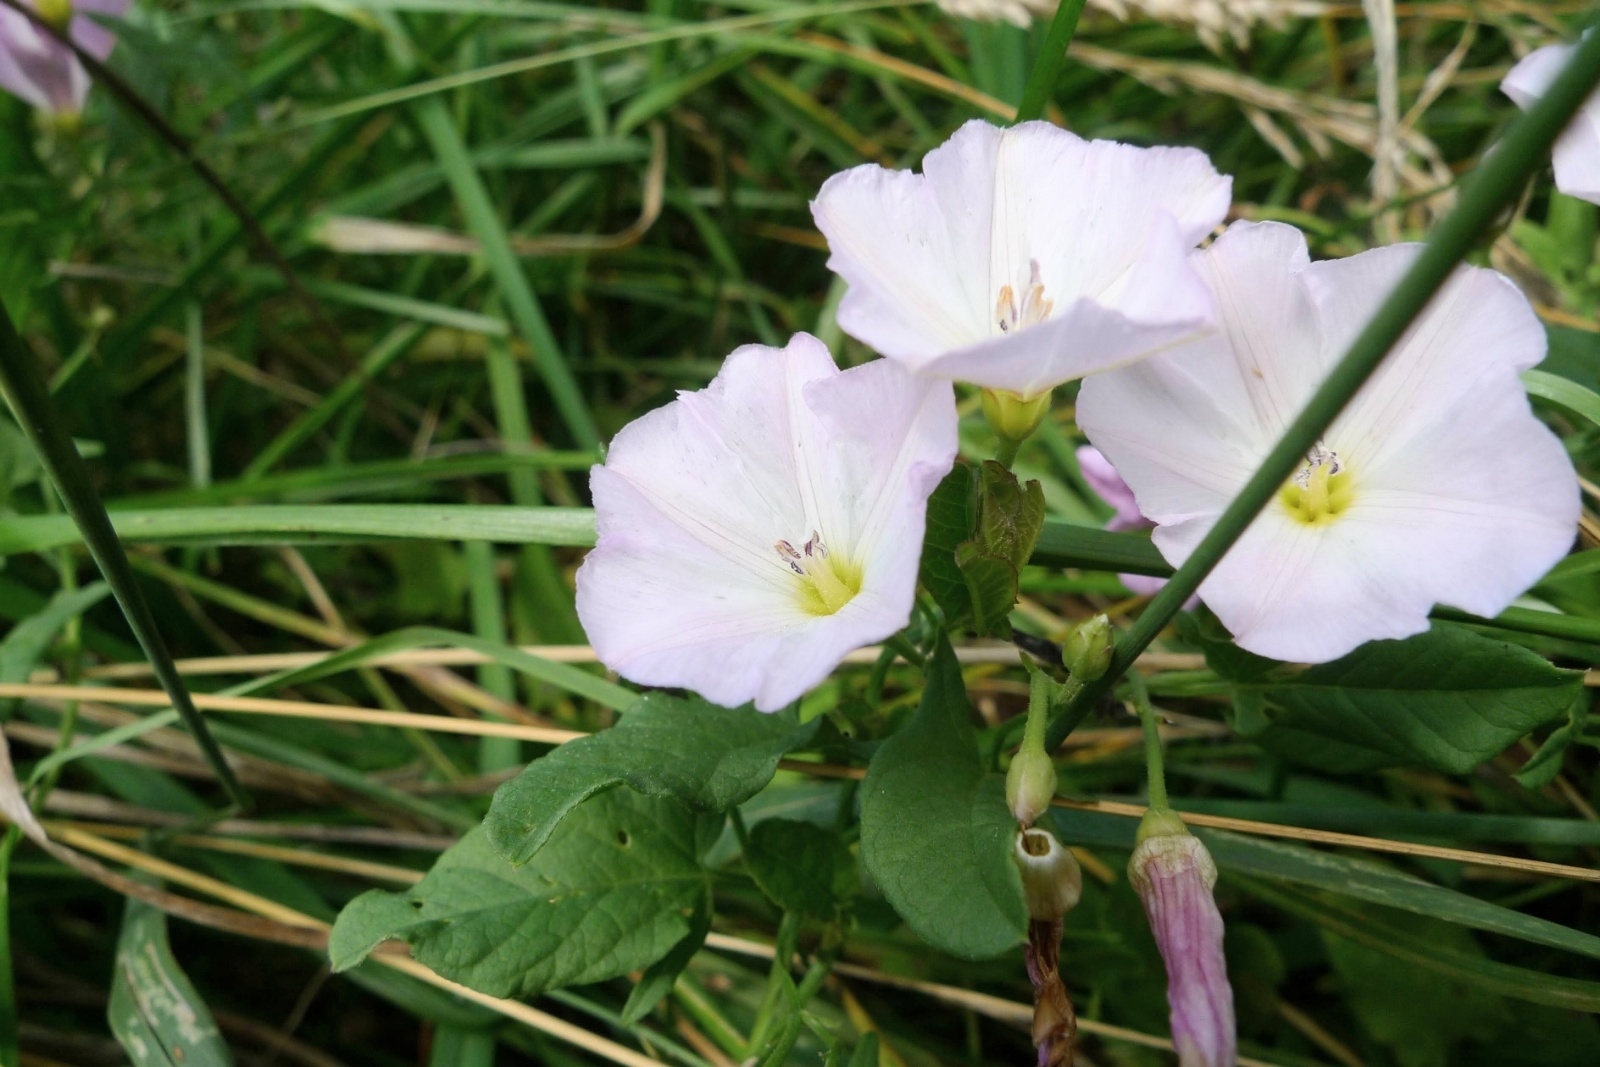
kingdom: Plantae
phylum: Tracheophyta
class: Magnoliopsida
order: Solanales
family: Convolvulaceae
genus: Convolvulus
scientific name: Convolvulus arvensis
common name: Field bindweed
